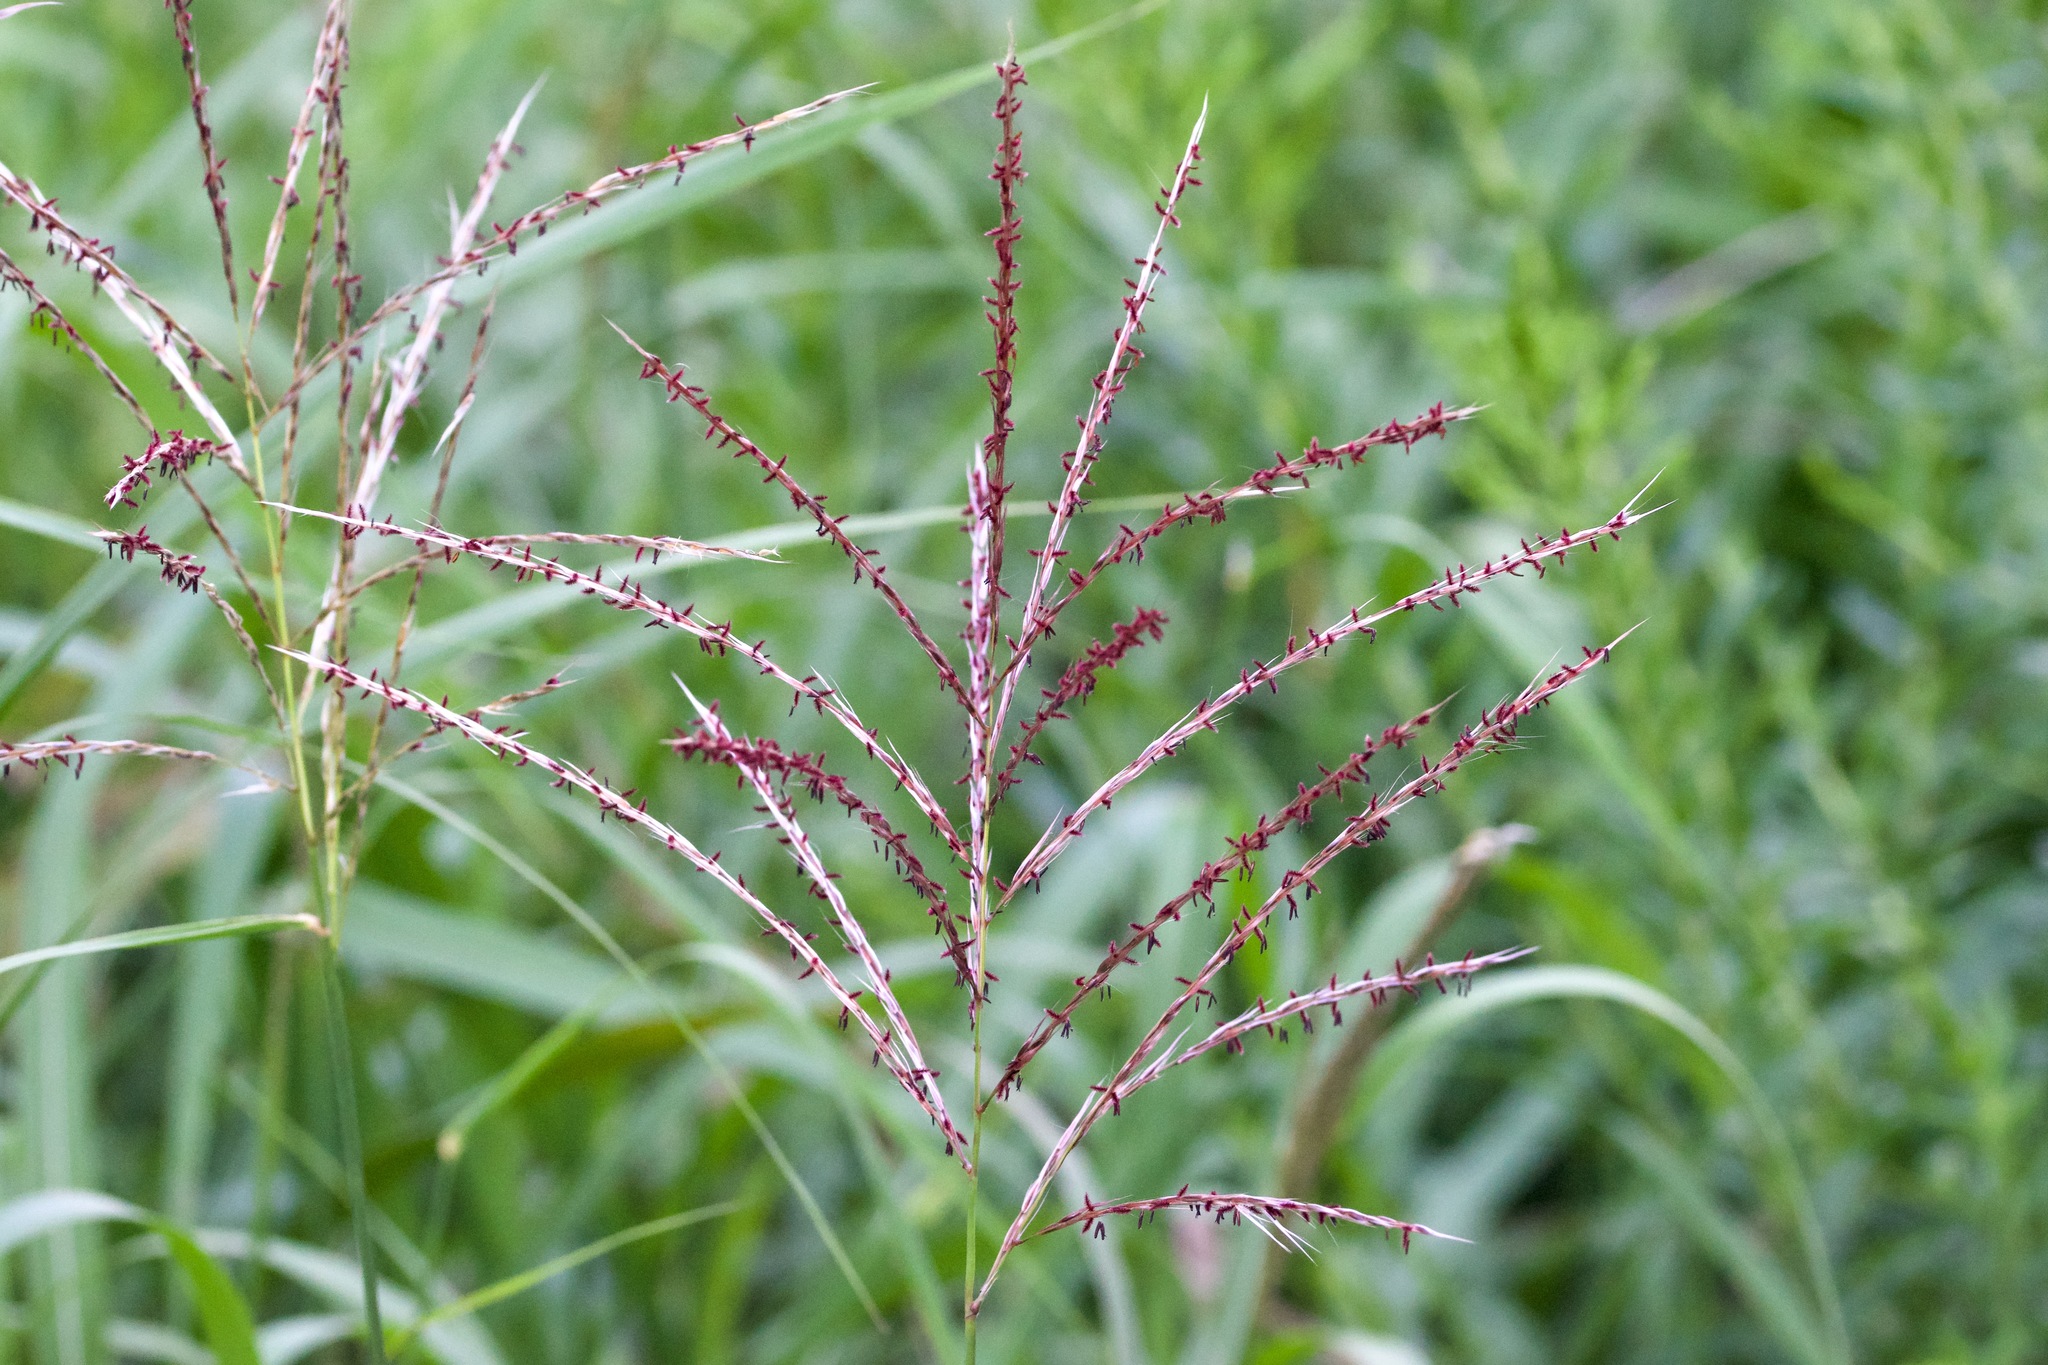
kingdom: Plantae
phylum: Tracheophyta
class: Liliopsida
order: Poales
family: Poaceae
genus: Miscanthus
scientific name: Miscanthus sinensis
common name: Chinese silvergrass
